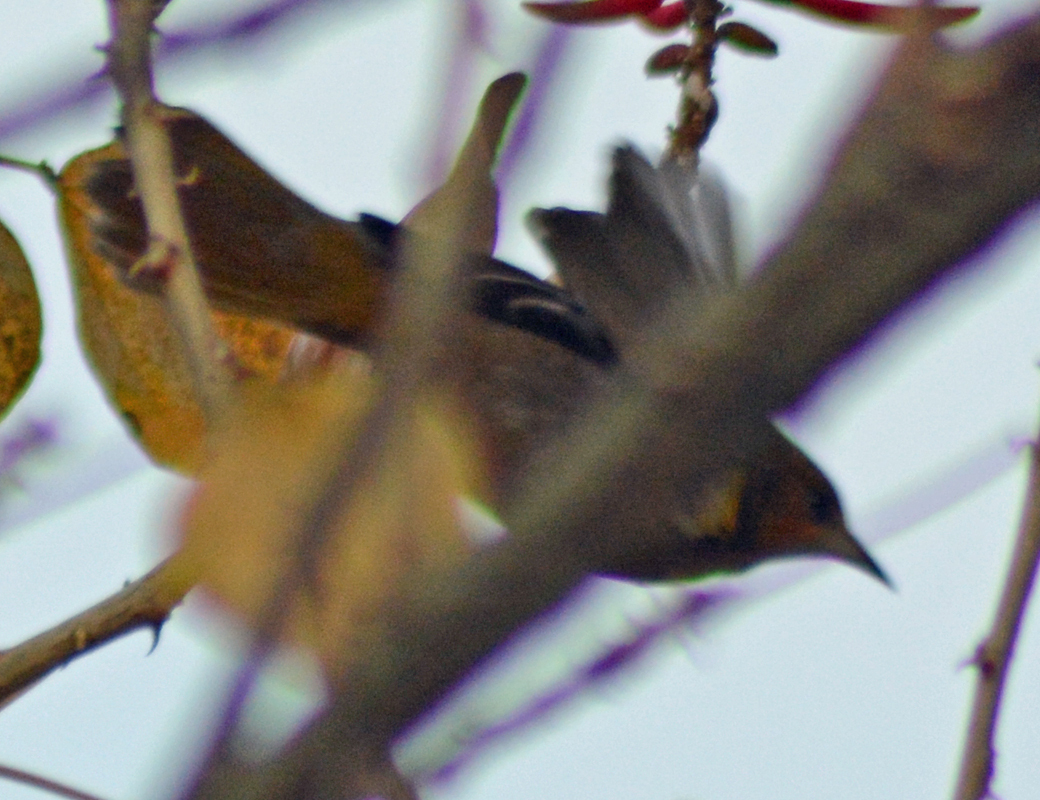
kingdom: Animalia
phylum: Chordata
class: Aves
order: Passeriformes
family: Icteridae
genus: Icterus
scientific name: Icterus bullockii
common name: Bullock's oriole
